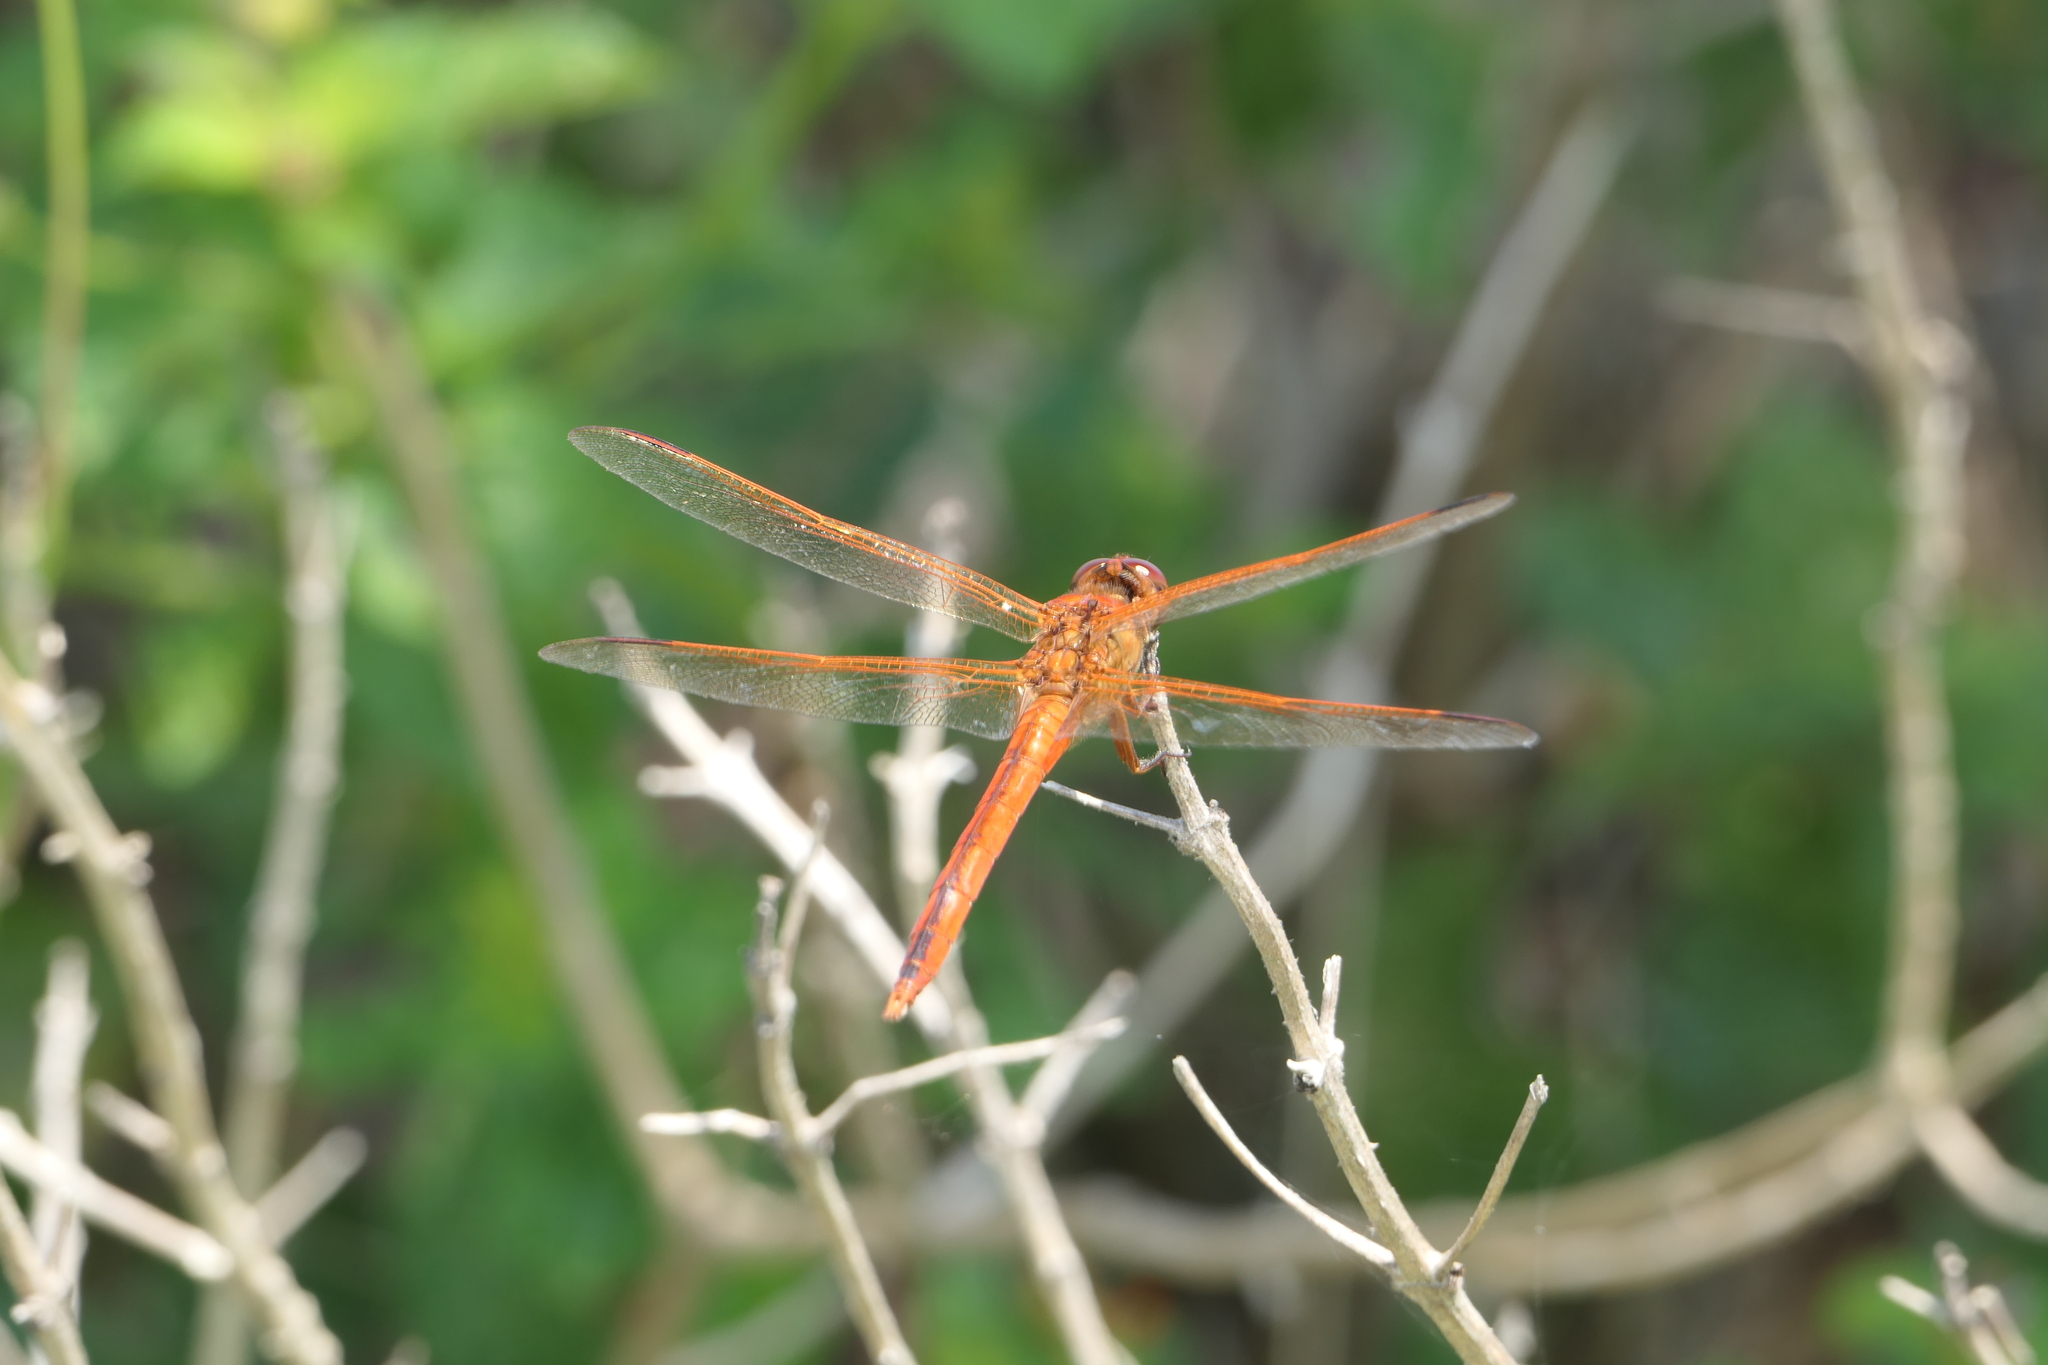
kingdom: Animalia
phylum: Arthropoda
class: Insecta
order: Odonata
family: Libellulidae
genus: Libellula
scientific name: Libellula needhami
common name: Needham's skimmer
